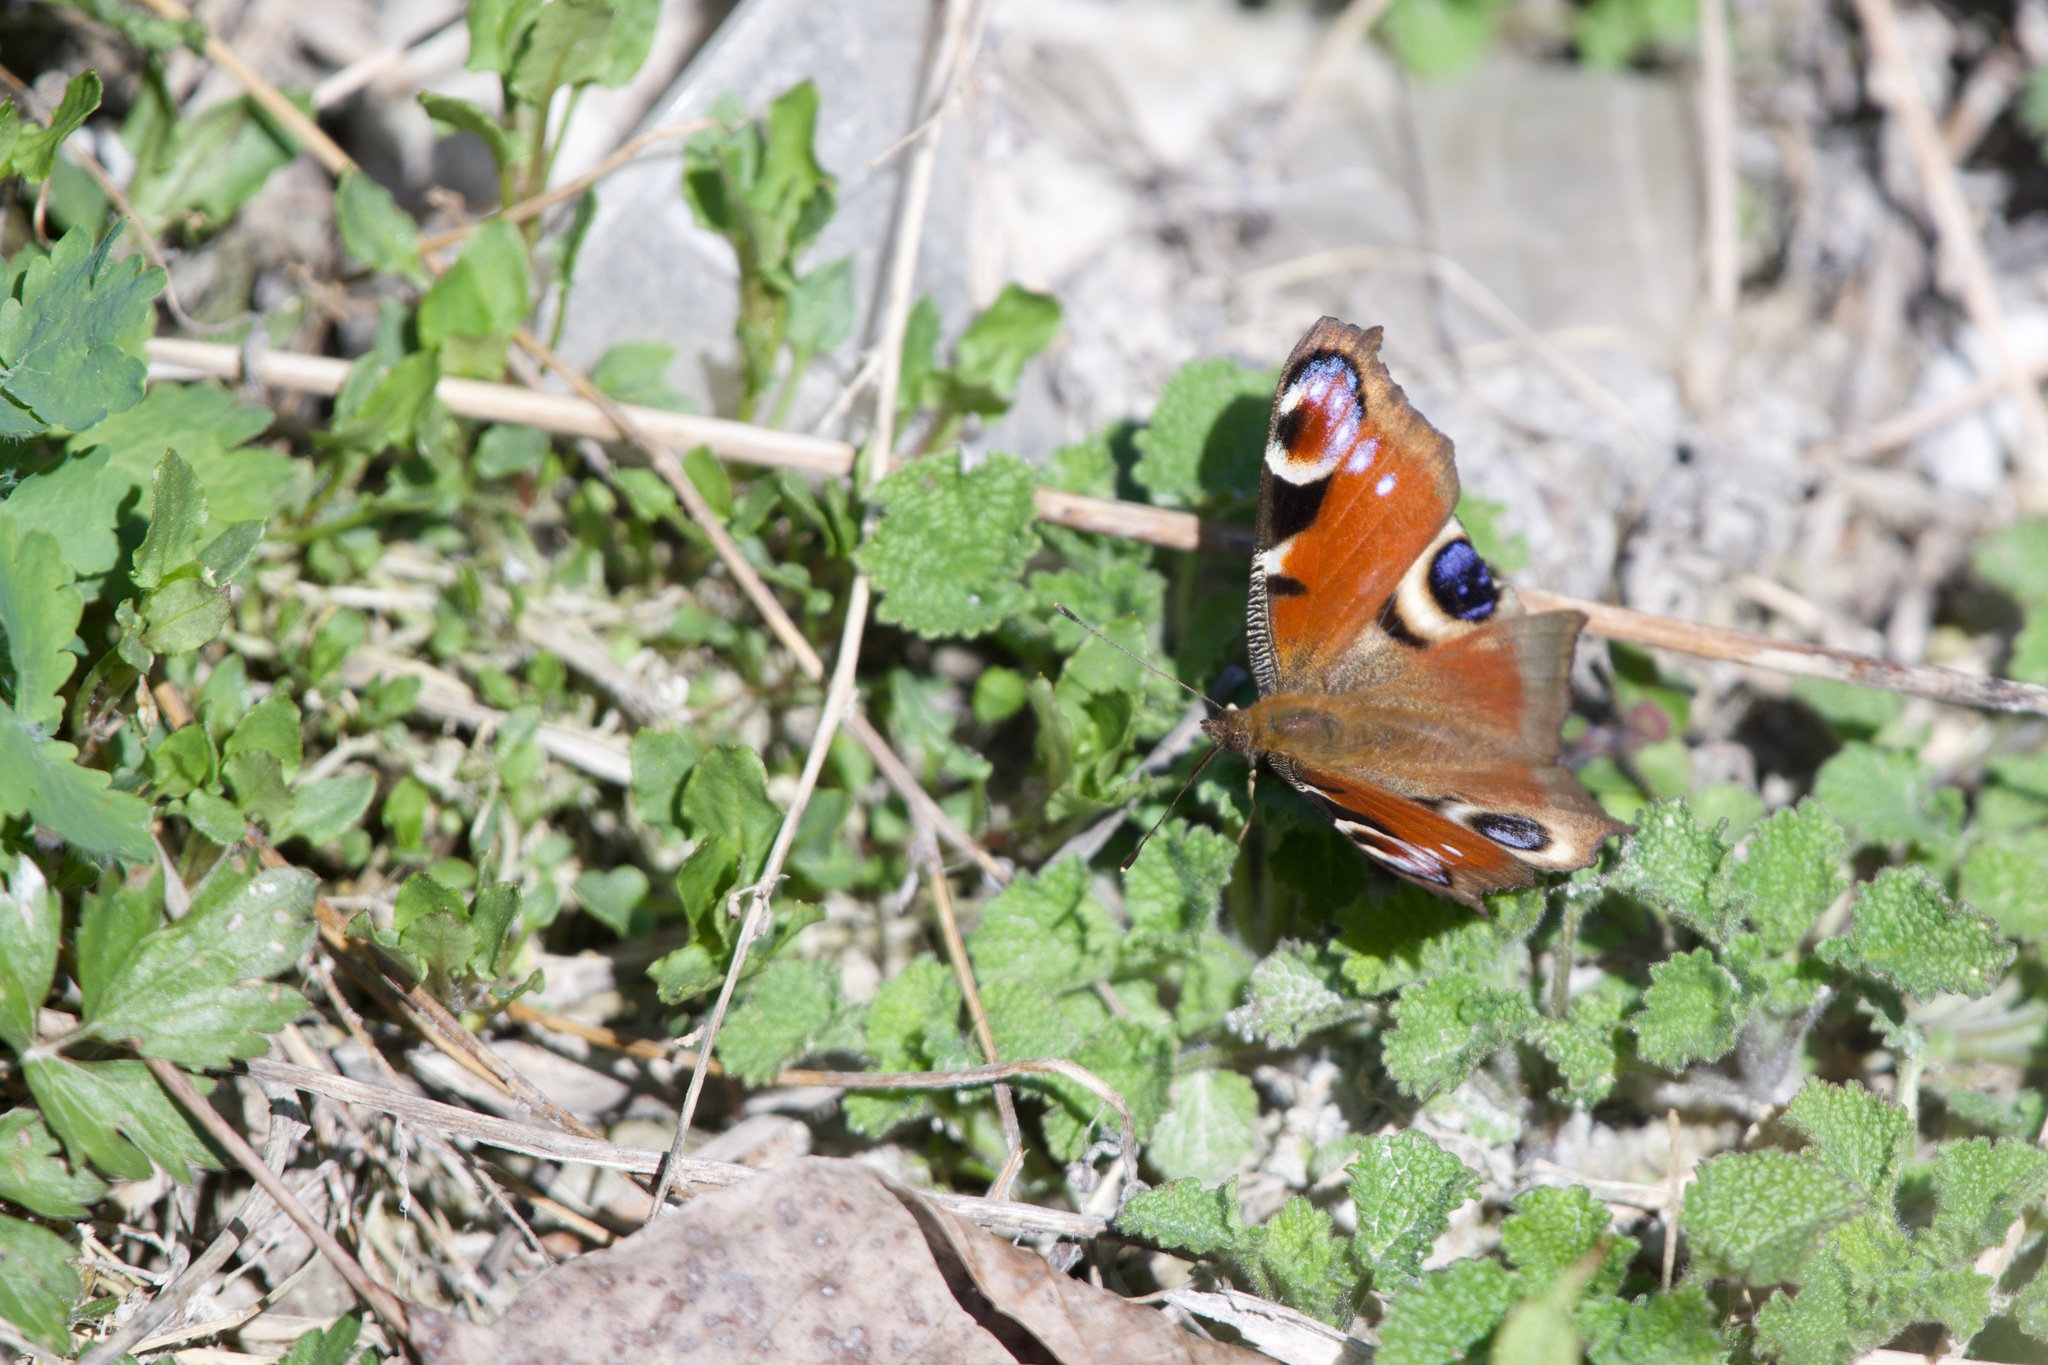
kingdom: Animalia
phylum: Arthropoda
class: Insecta
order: Lepidoptera
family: Nymphalidae
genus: Aglais
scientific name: Aglais io
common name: Peacock
